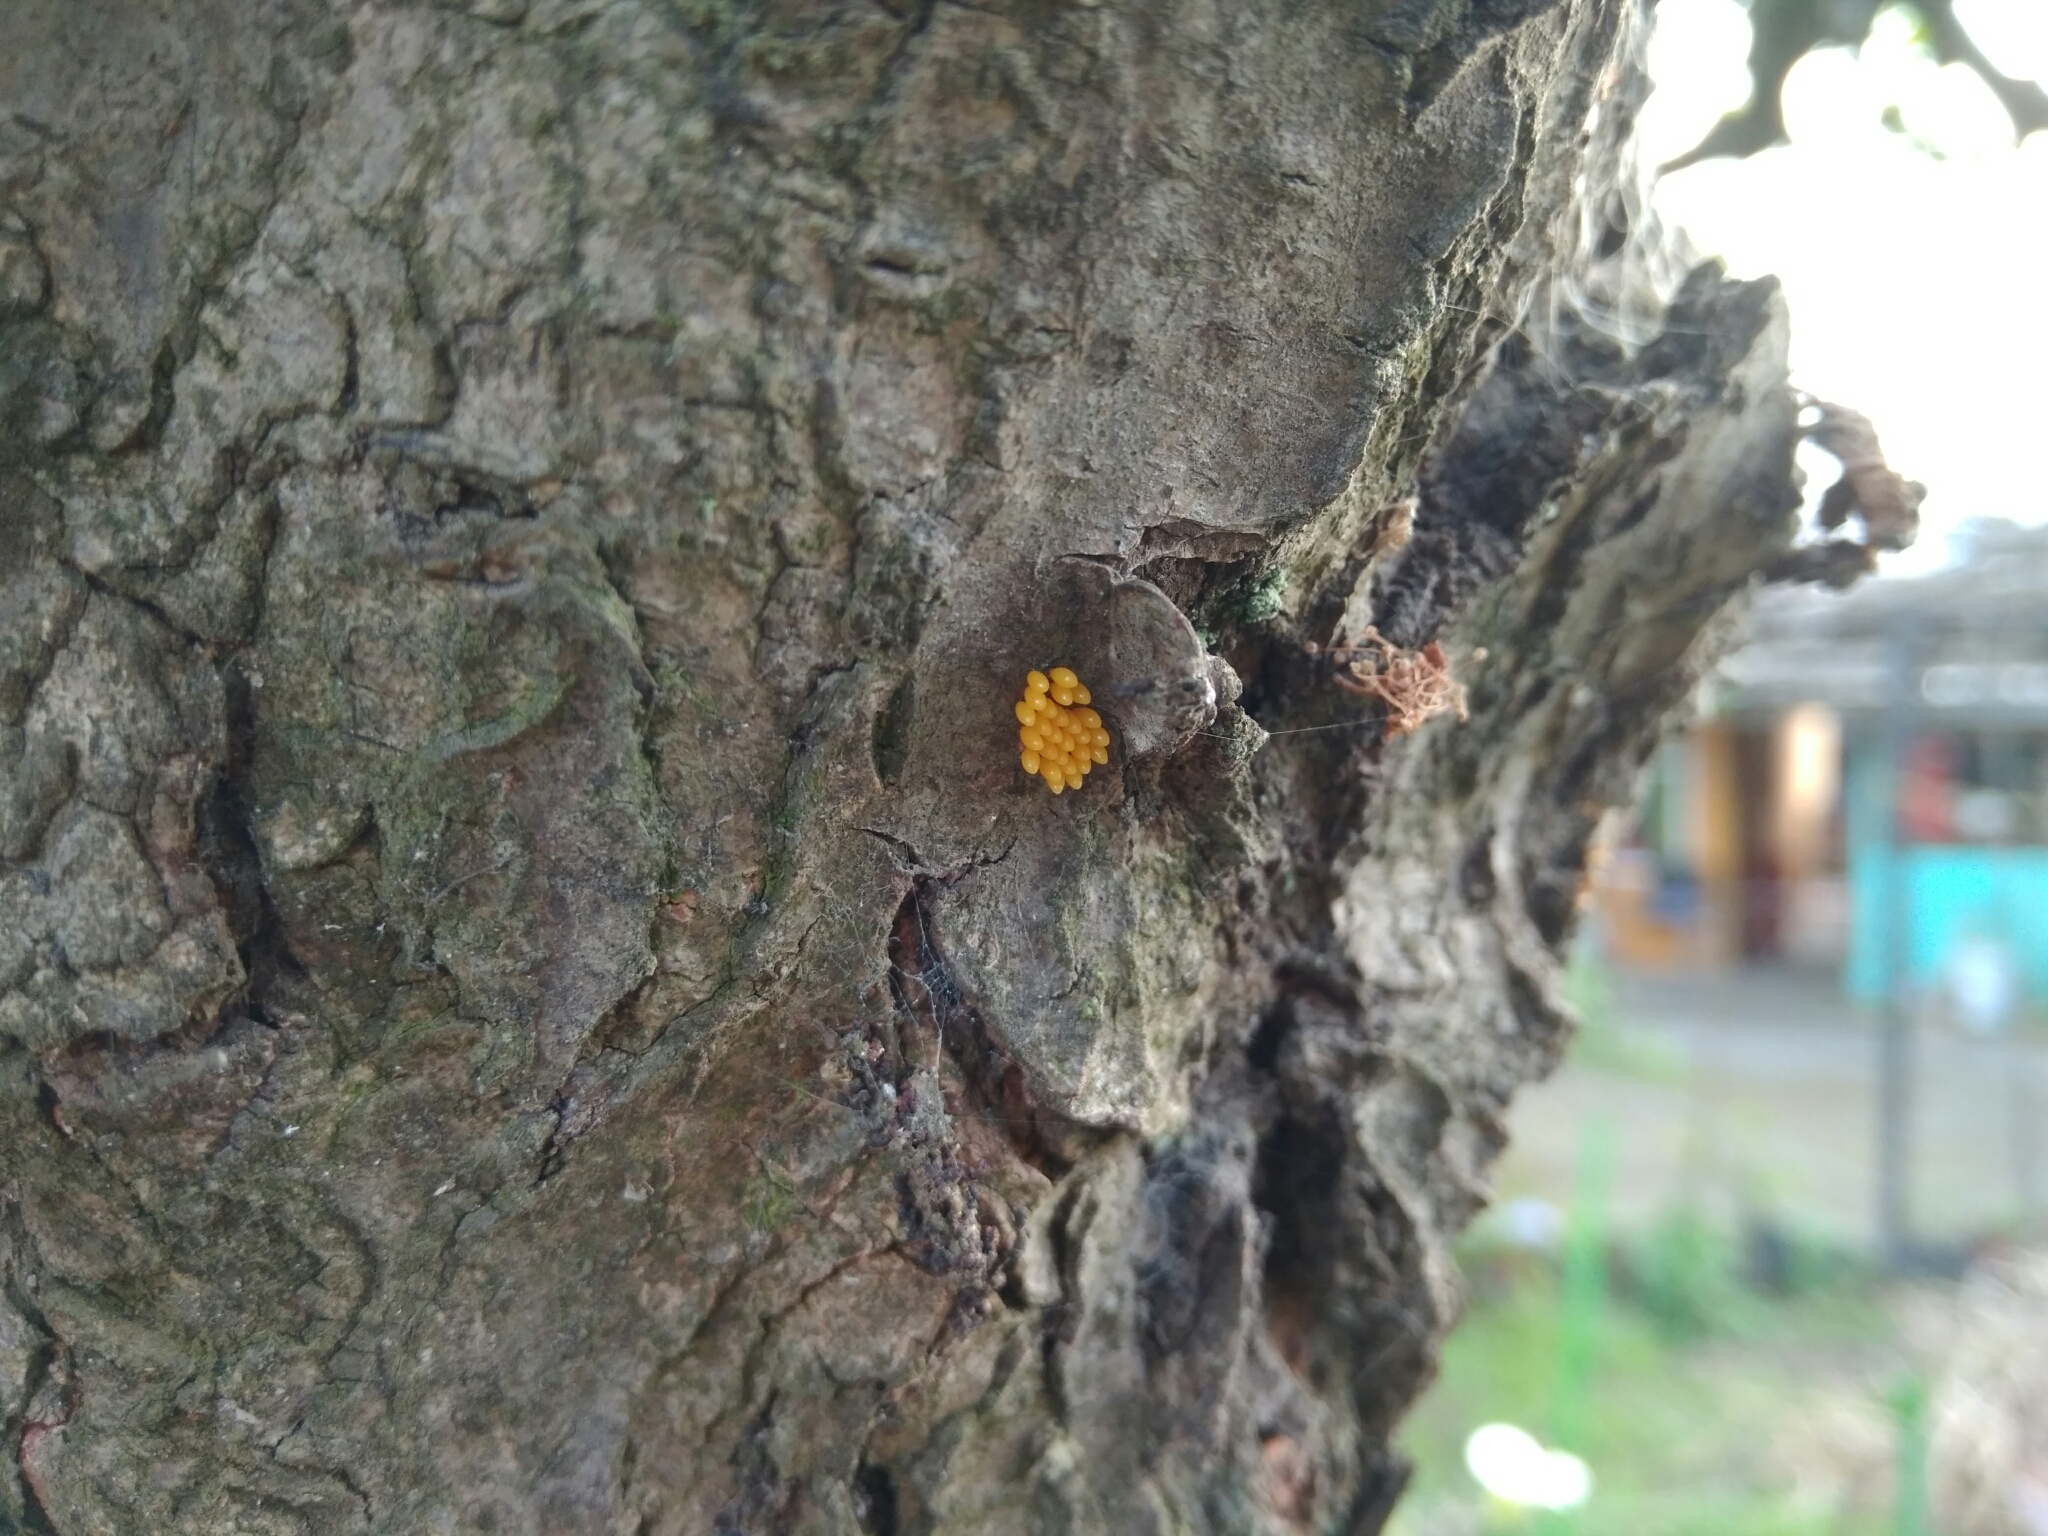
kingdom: Animalia
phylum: Arthropoda
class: Insecta
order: Coleoptera
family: Coccinellidae
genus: Harmonia
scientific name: Harmonia axyridis
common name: Harlequin ladybird
